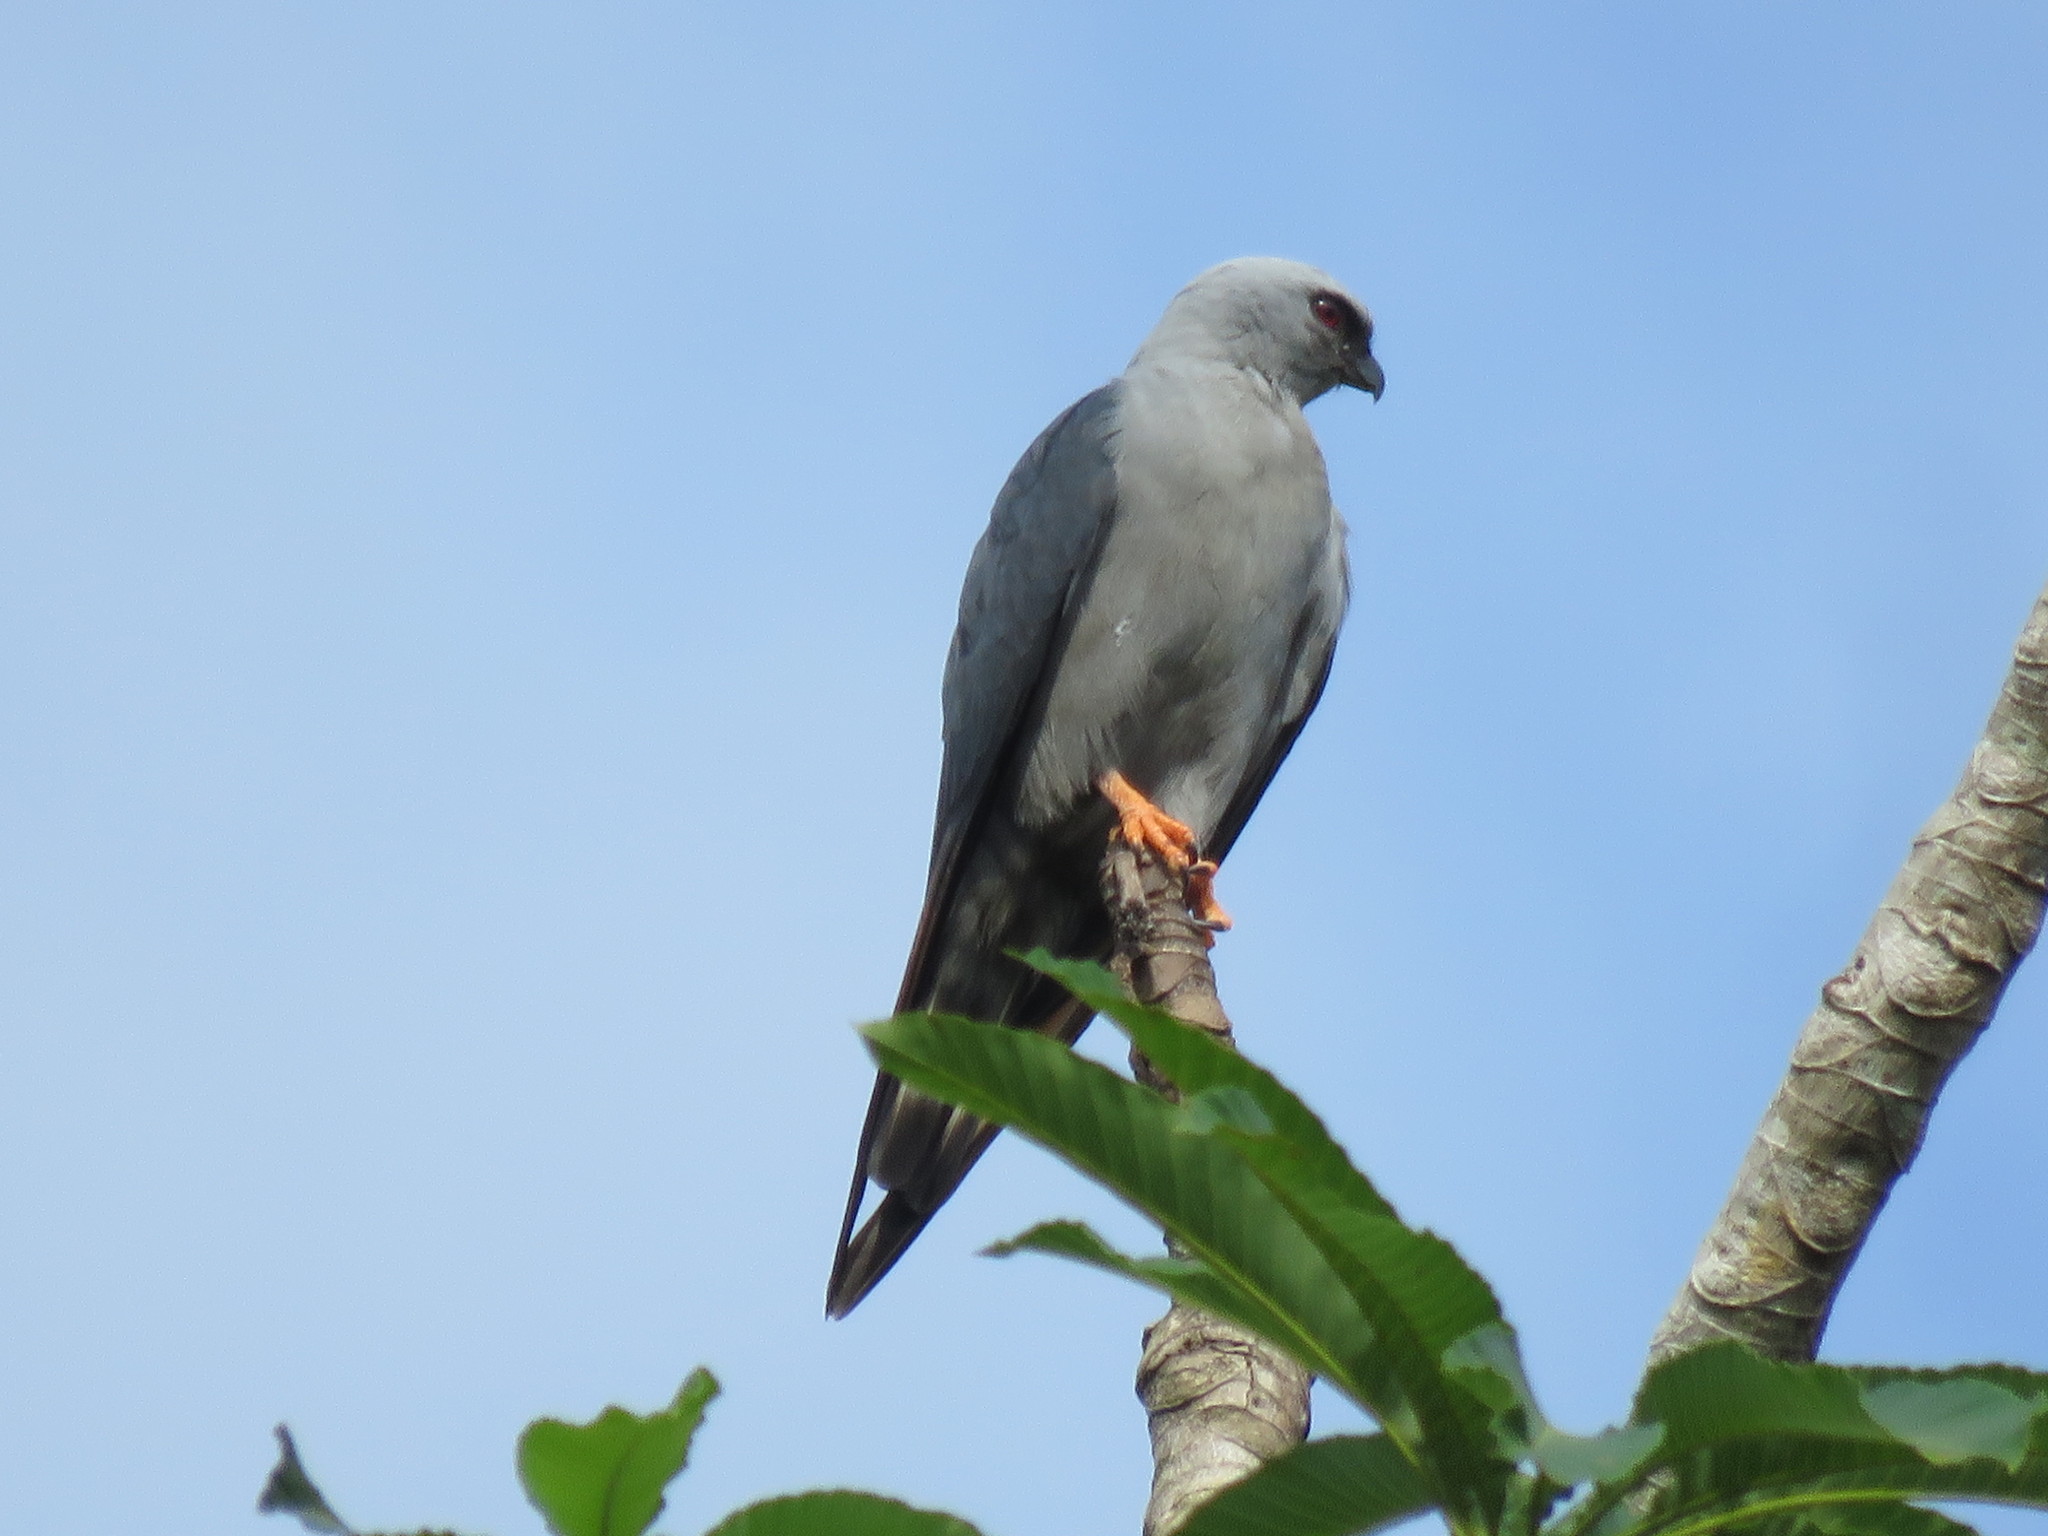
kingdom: Animalia
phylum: Chordata
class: Aves
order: Accipitriformes
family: Accipitridae
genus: Ictinia
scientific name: Ictinia plumbea
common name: Plumbeous kite
